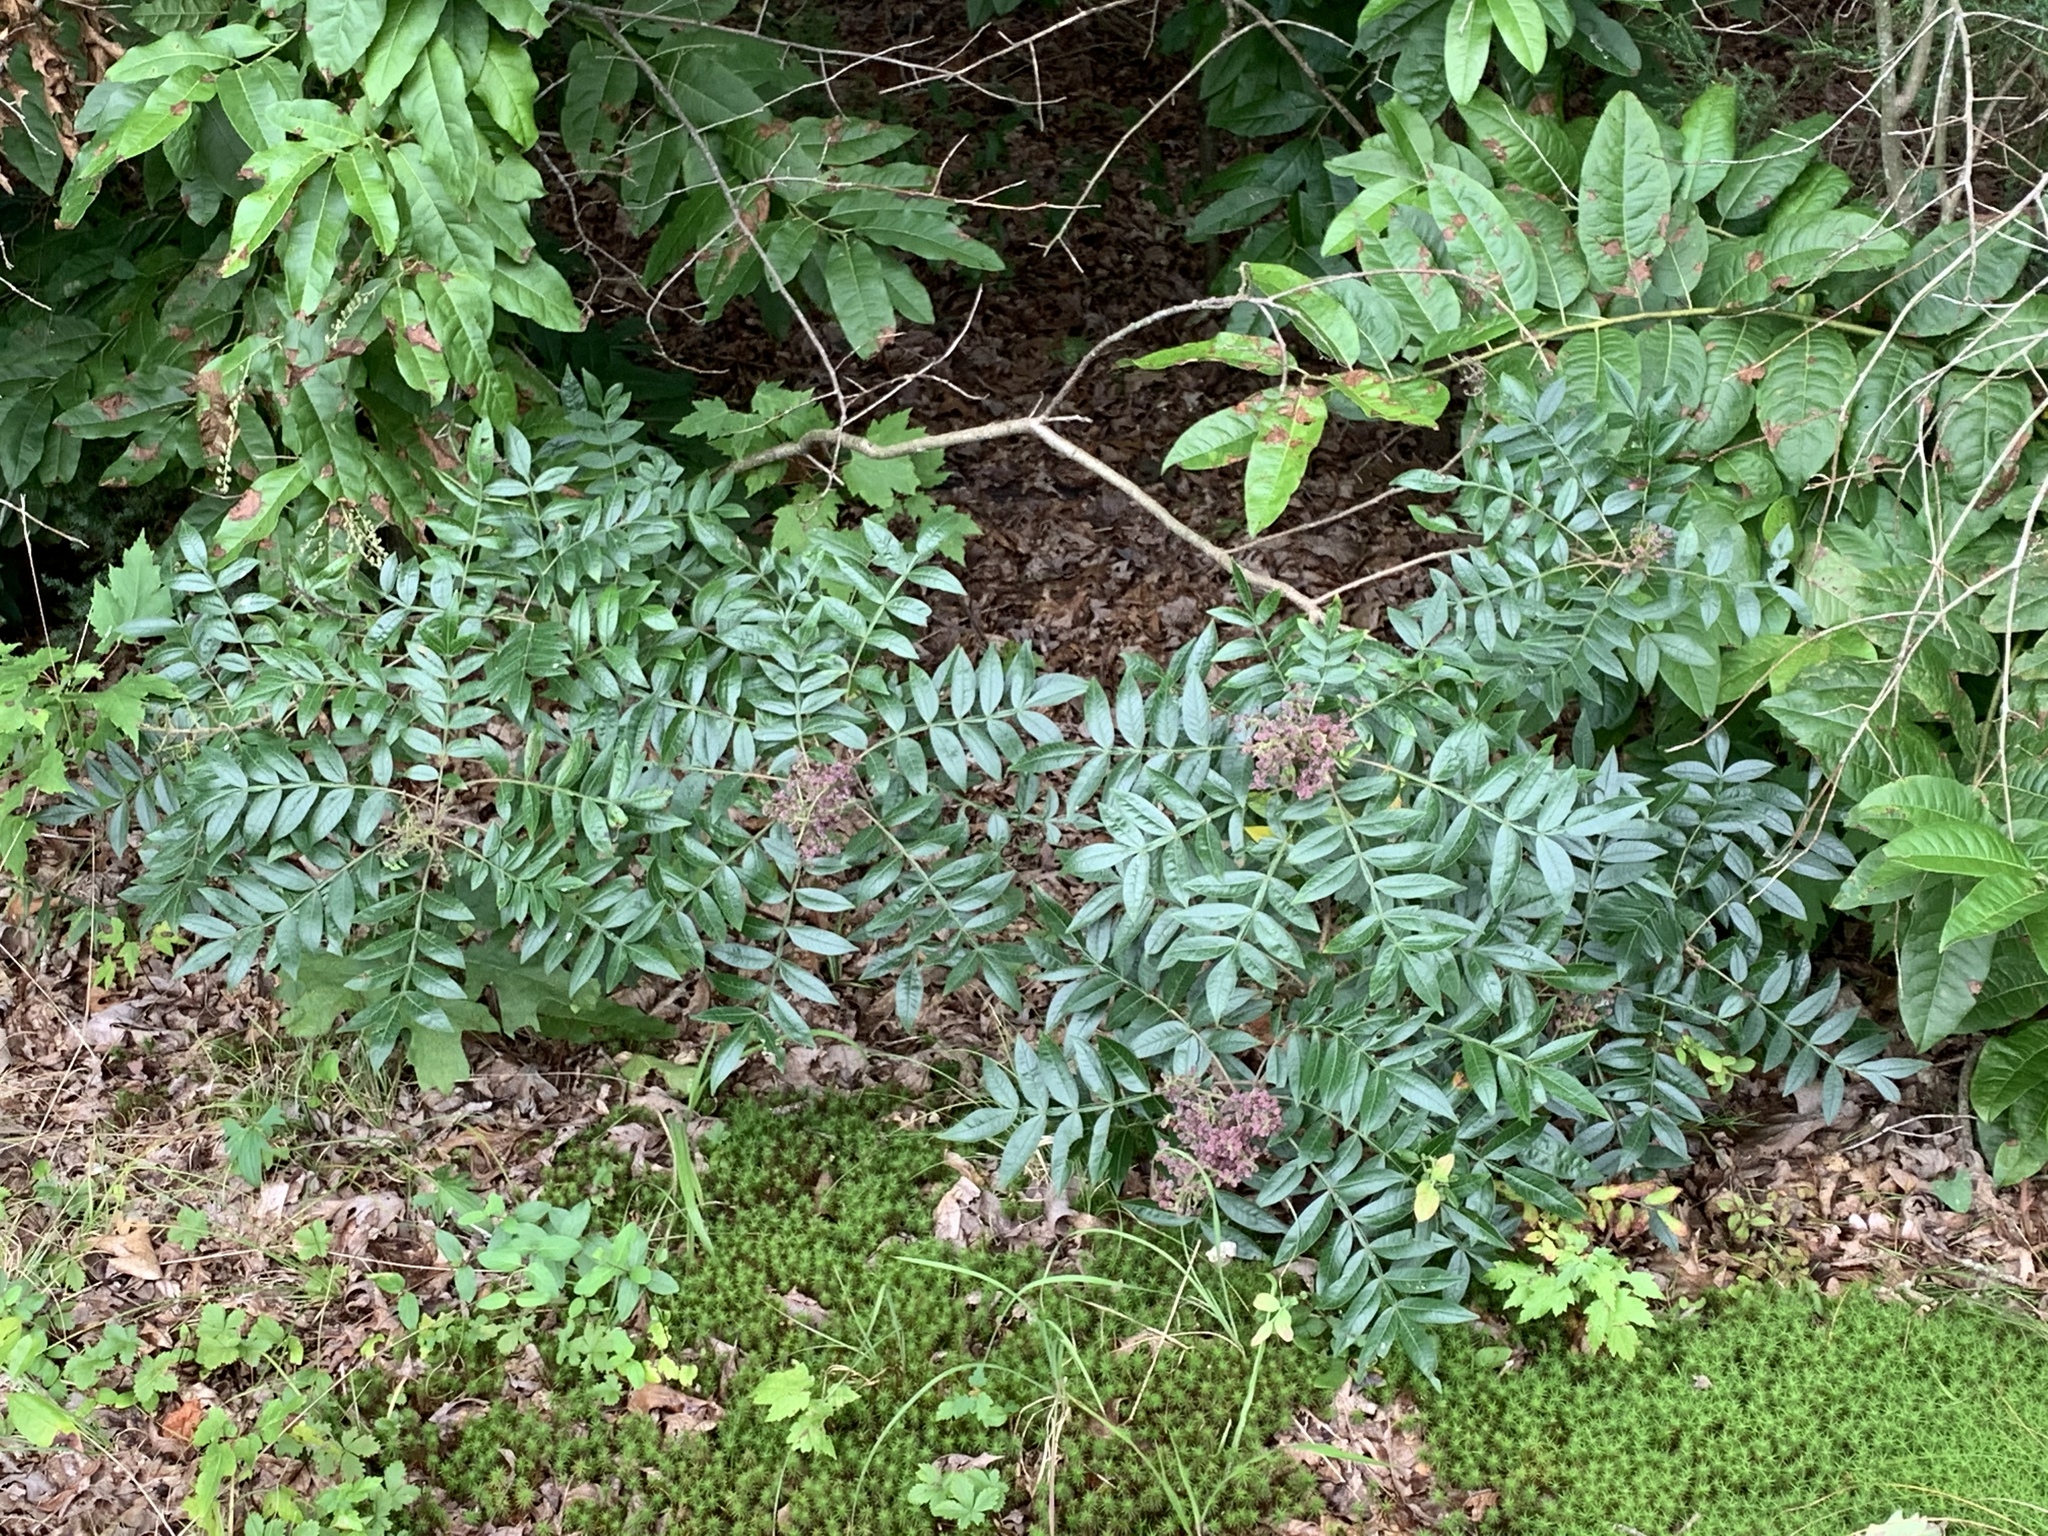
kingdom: Plantae
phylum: Tracheophyta
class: Magnoliopsida
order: Sapindales
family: Anacardiaceae
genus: Rhus
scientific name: Rhus copallina
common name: Shining sumac
